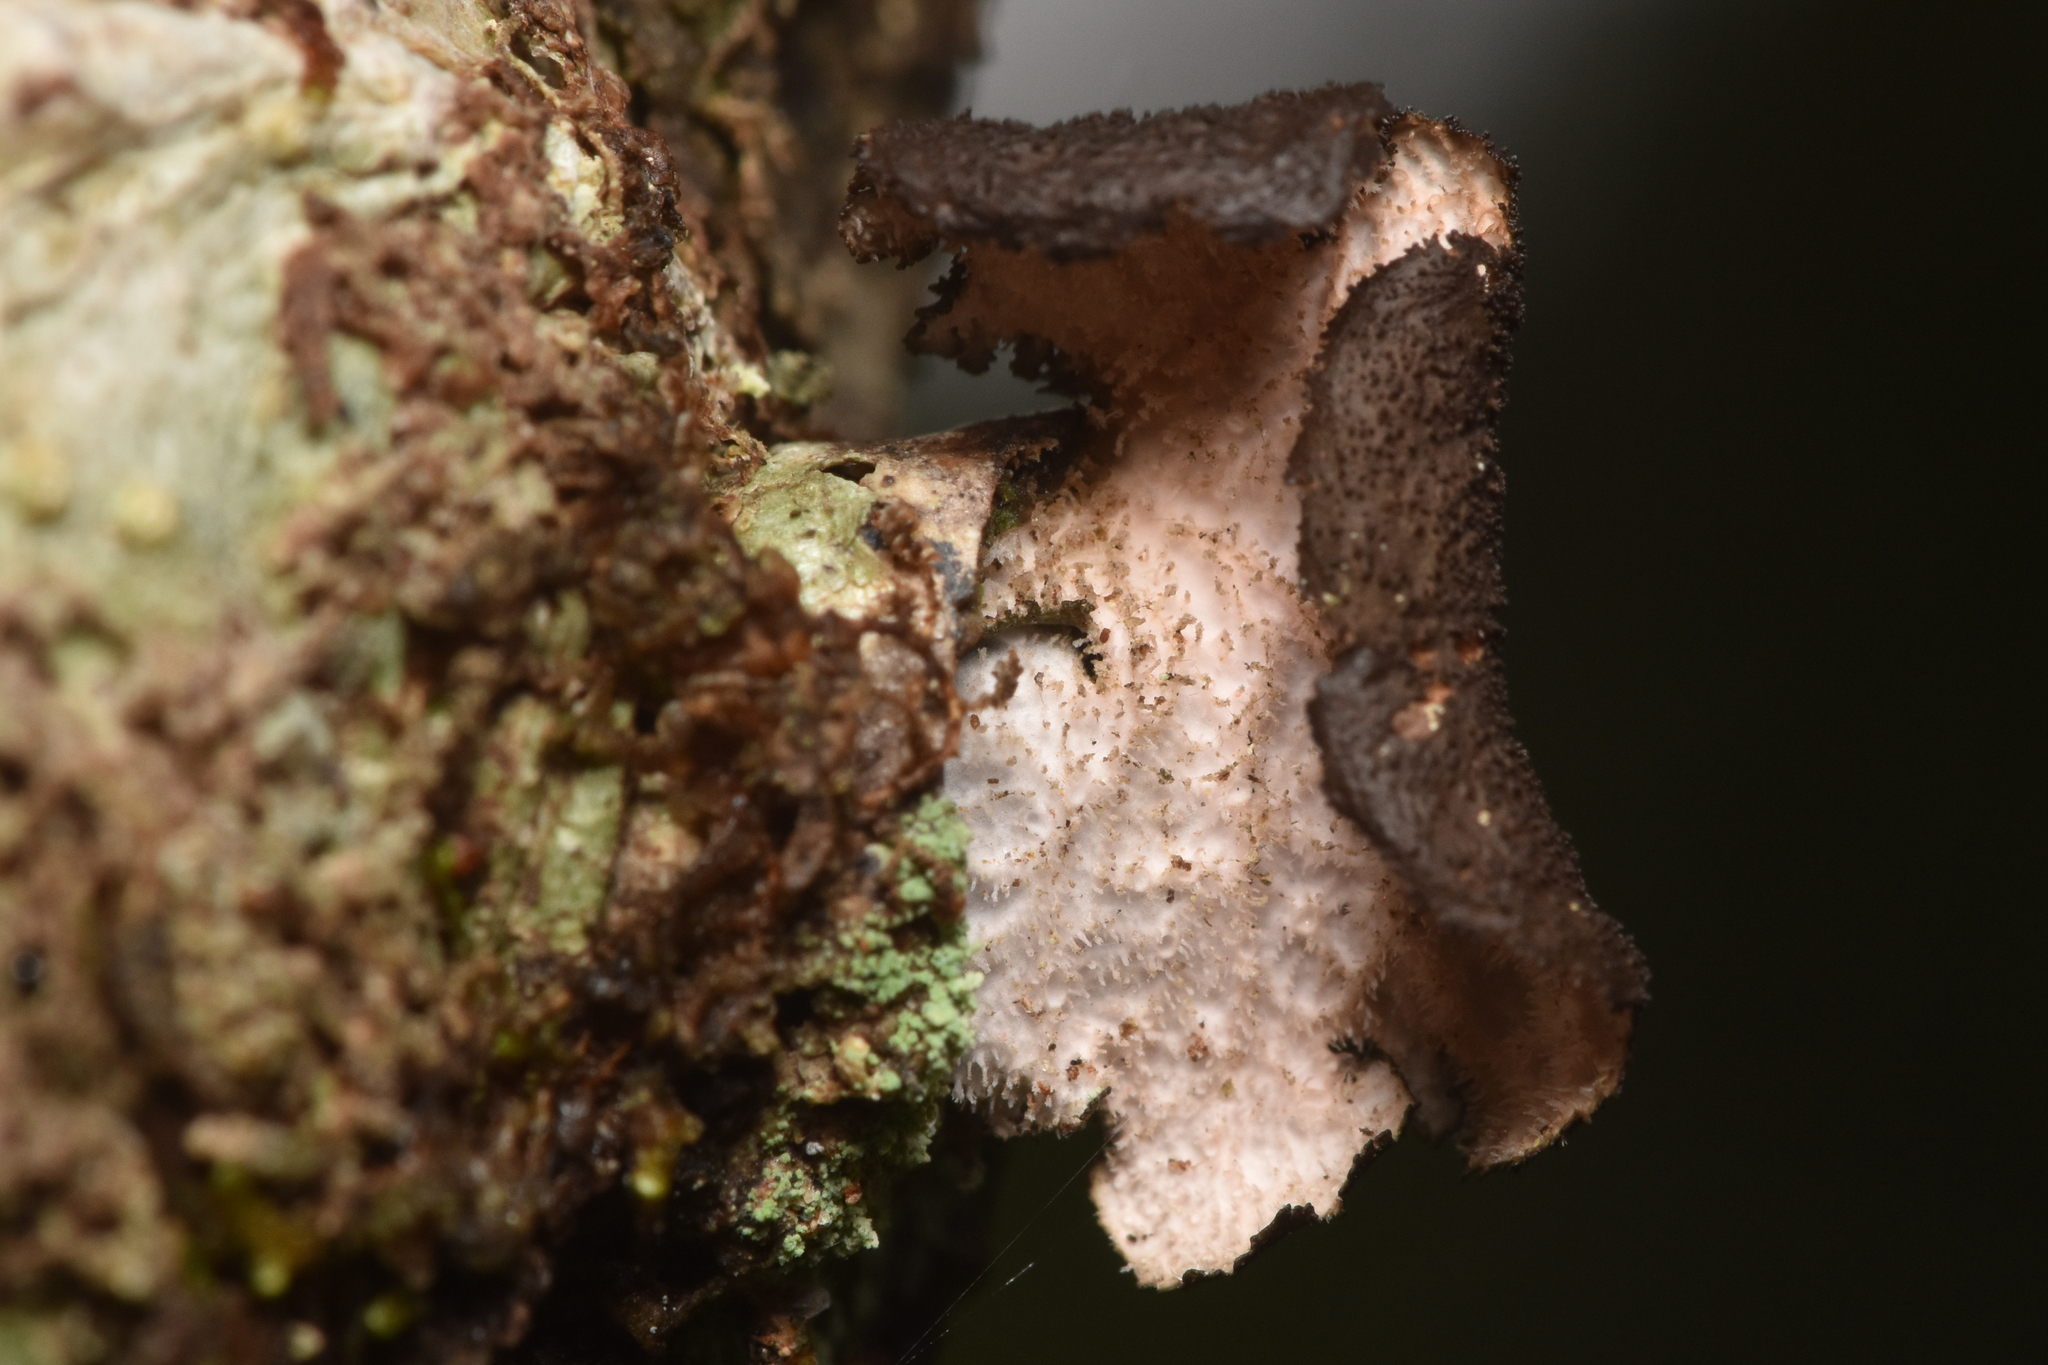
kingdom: Fungi
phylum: Ascomycota
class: Lecanoromycetes
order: Peltigerales
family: Lobariaceae
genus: Sticta
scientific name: Sticta fuliginosa
